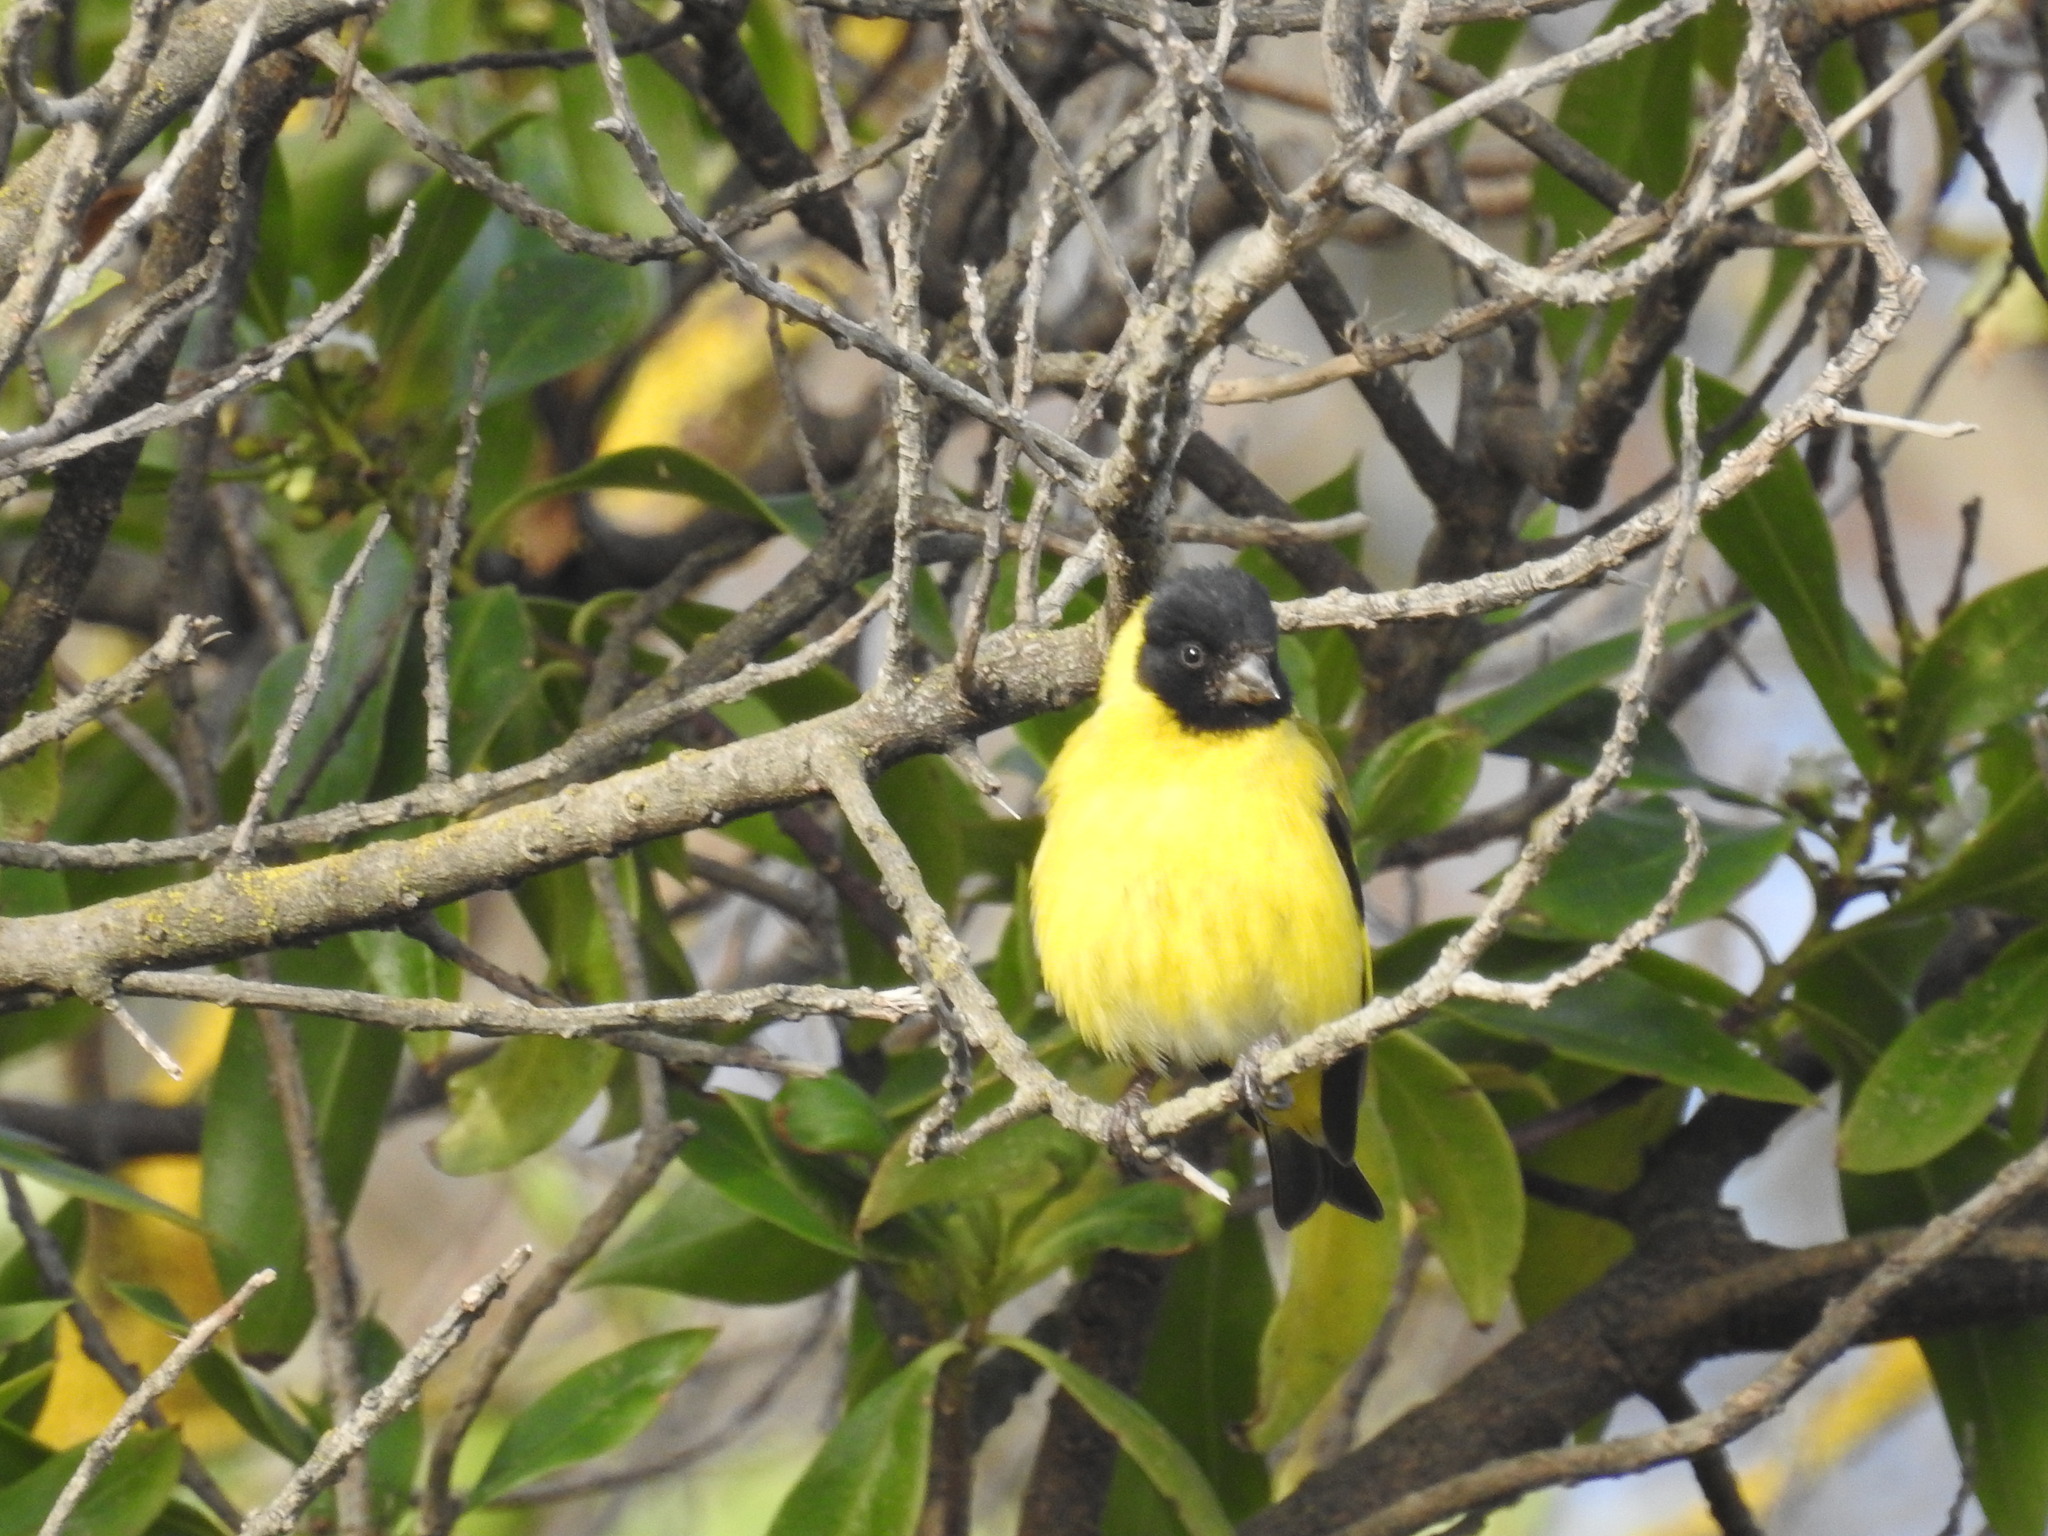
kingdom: Animalia
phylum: Chordata
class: Aves
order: Passeriformes
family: Fringillidae
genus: Spinus
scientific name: Spinus magellanicus
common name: Hooded siskin
